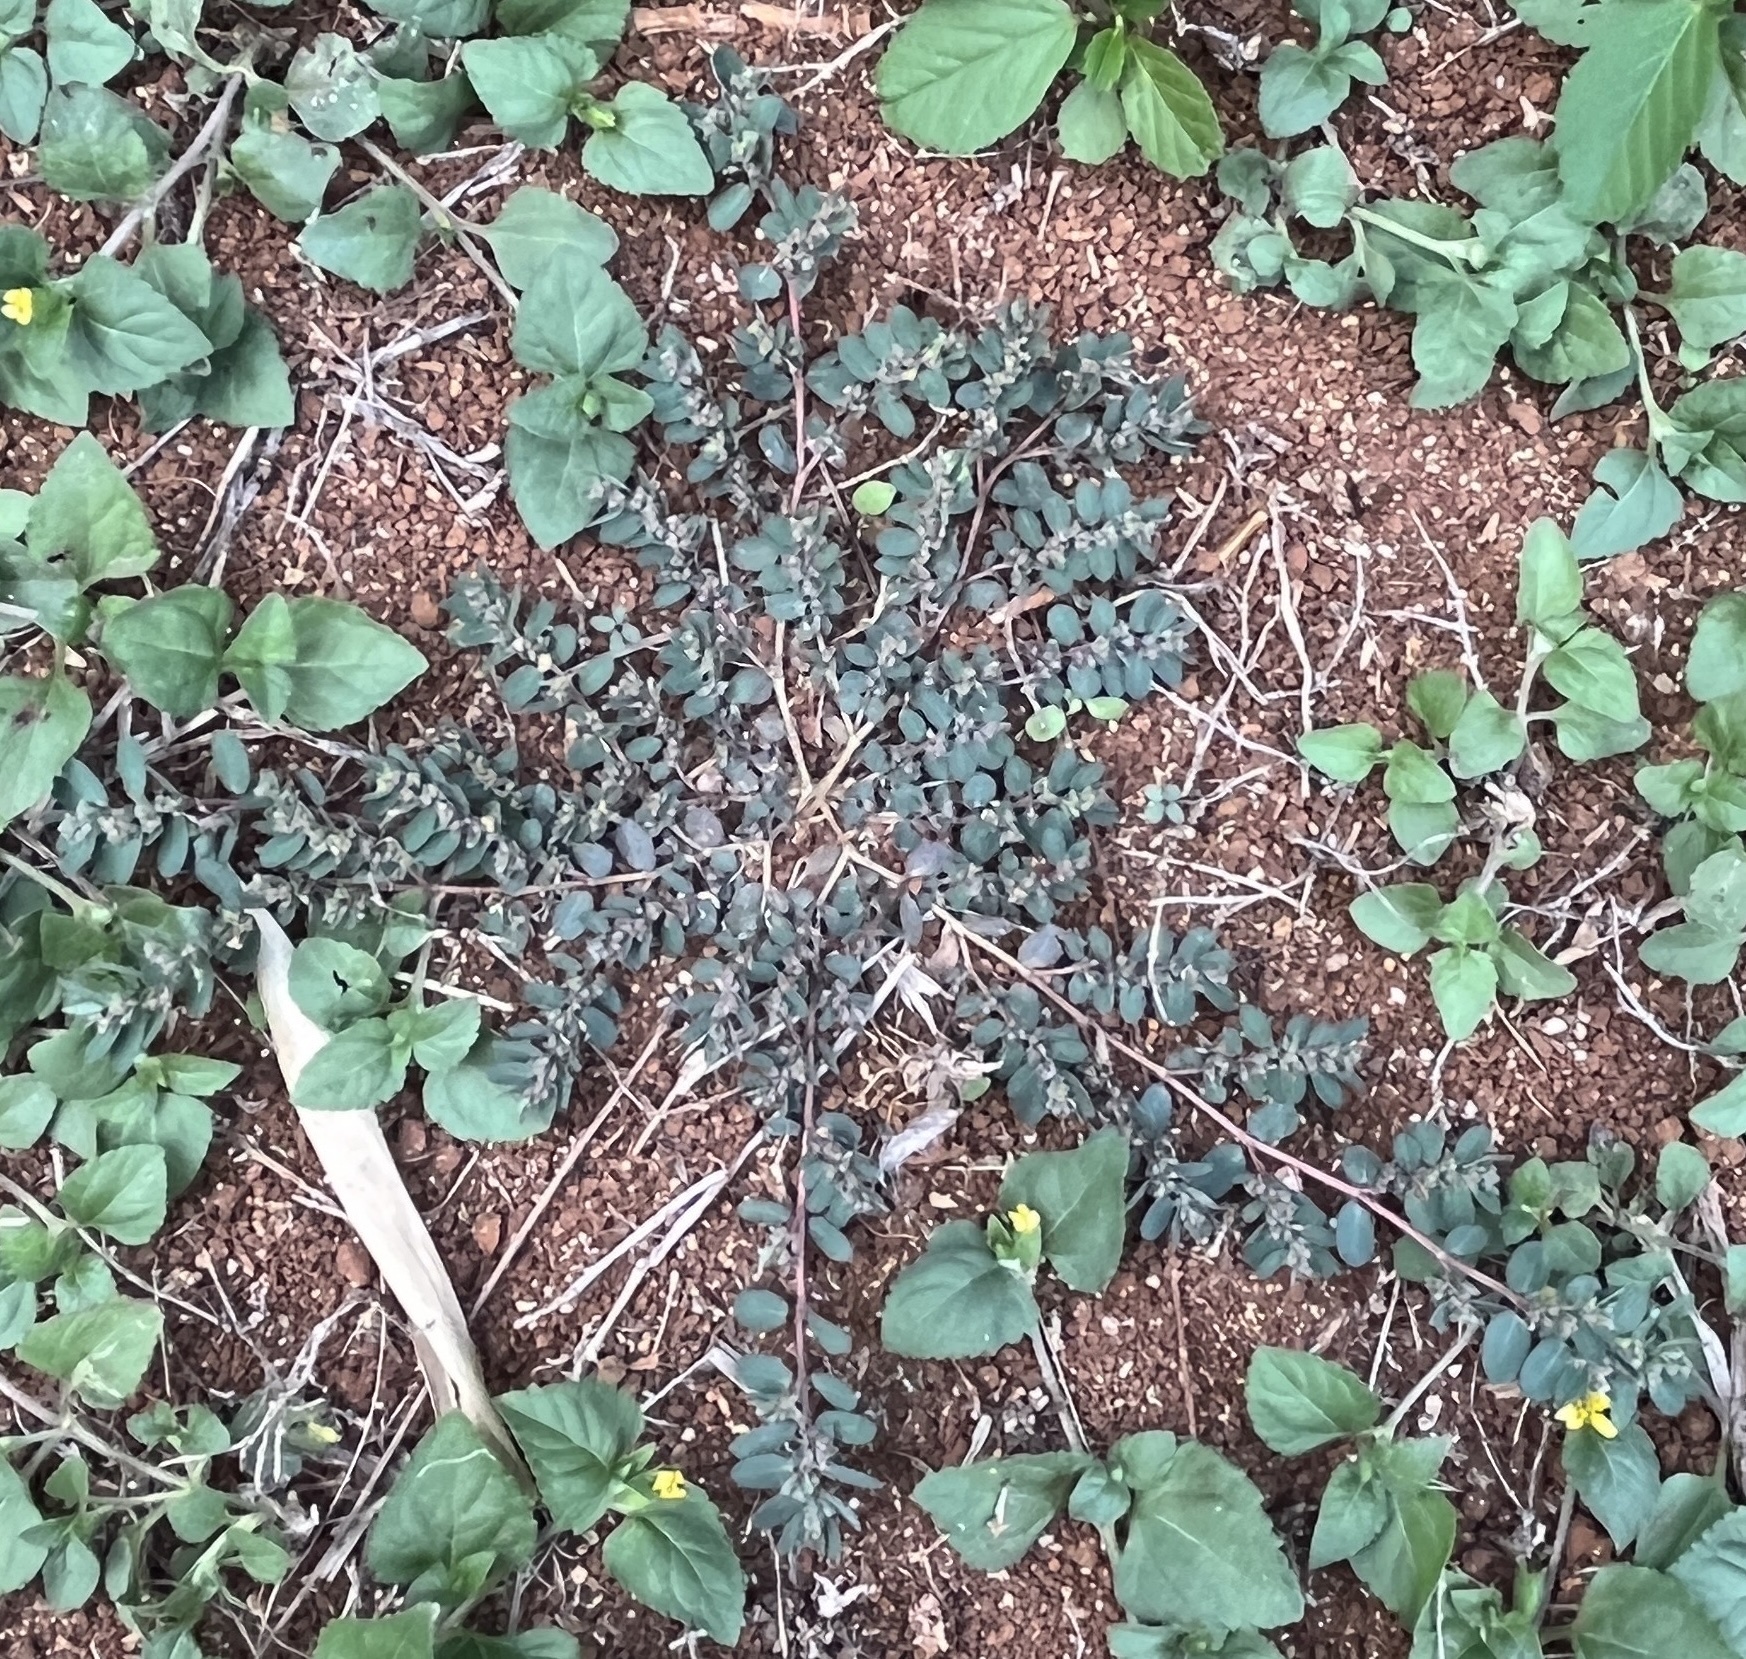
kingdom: Plantae
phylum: Tracheophyta
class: Magnoliopsida
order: Malpighiales
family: Euphorbiaceae
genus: Euphorbia
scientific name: Euphorbia prostrata
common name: Prostrate sandmat
